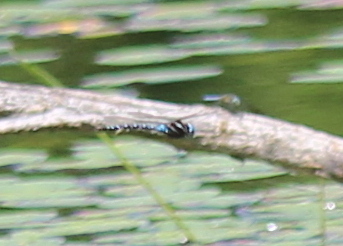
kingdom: Animalia
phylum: Arthropoda
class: Insecta
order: Odonata
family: Aeshnidae
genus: Rhionaeschna
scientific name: Rhionaeschna mutata
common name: Spatterdock darner
